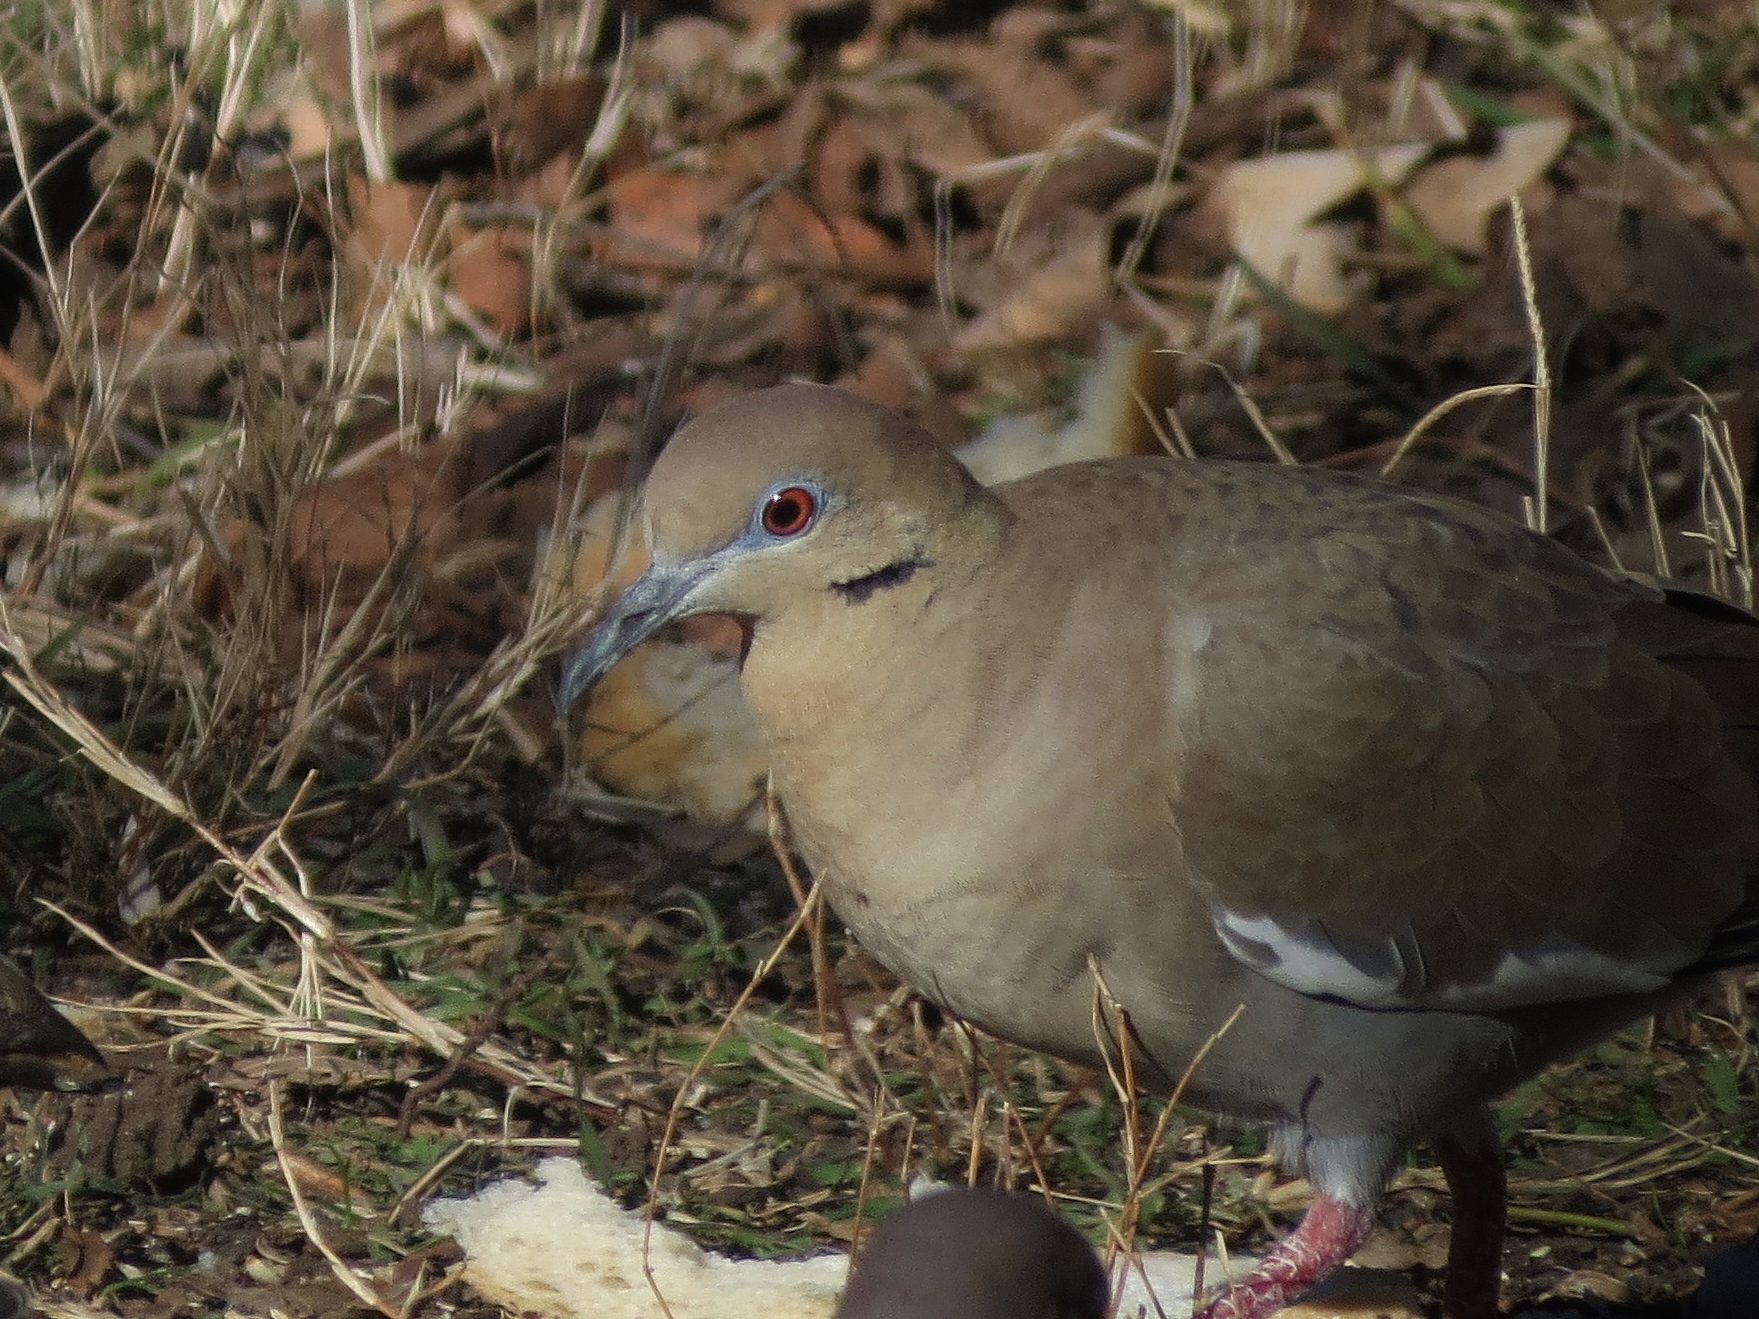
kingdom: Animalia
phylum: Chordata
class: Aves
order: Columbiformes
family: Columbidae
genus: Zenaida
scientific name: Zenaida asiatica
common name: White-winged dove
